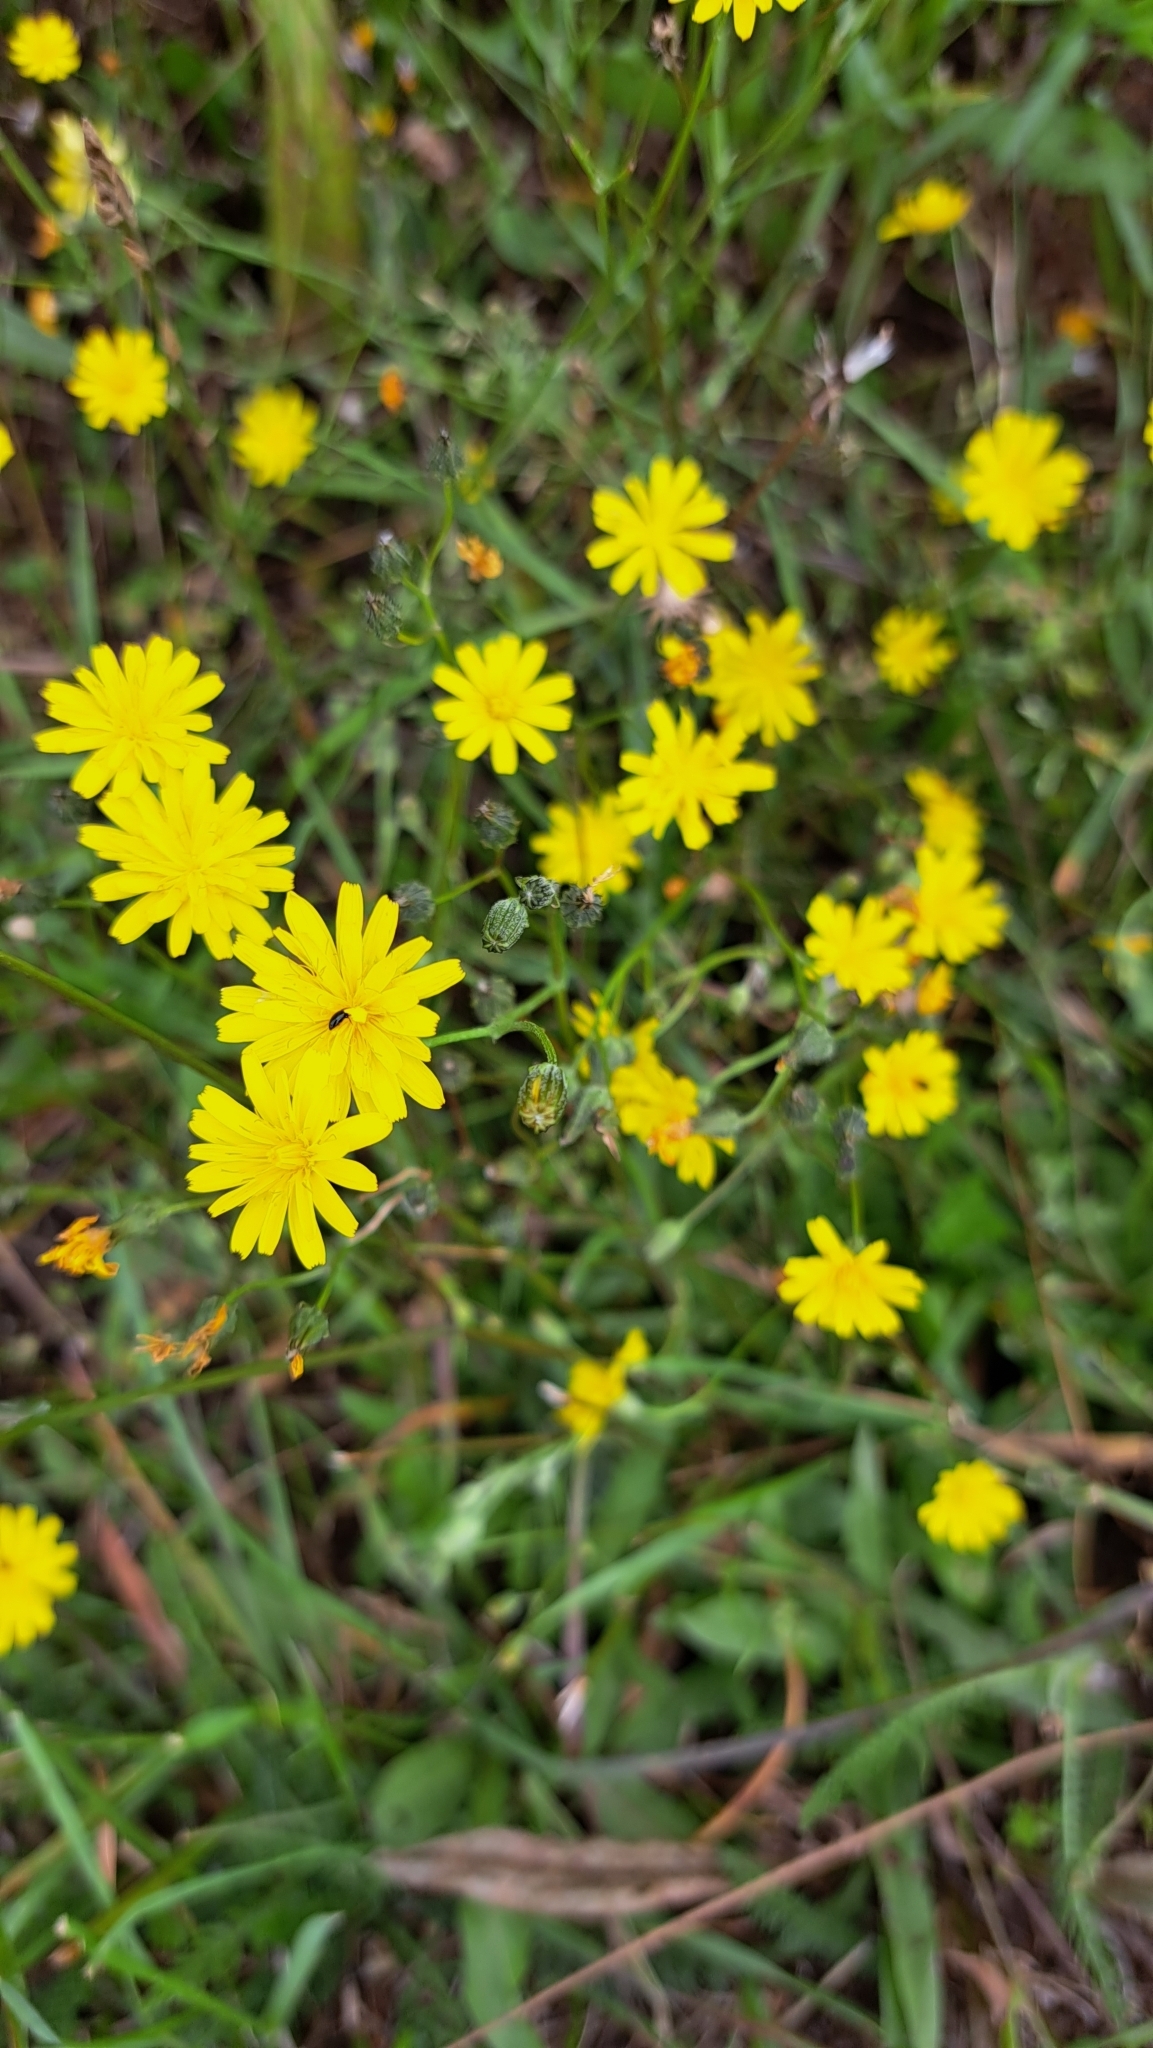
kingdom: Plantae
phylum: Tracheophyta
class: Magnoliopsida
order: Asterales
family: Asteraceae
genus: Crepis
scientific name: Crepis capillaris
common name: Smooth hawksbeard
